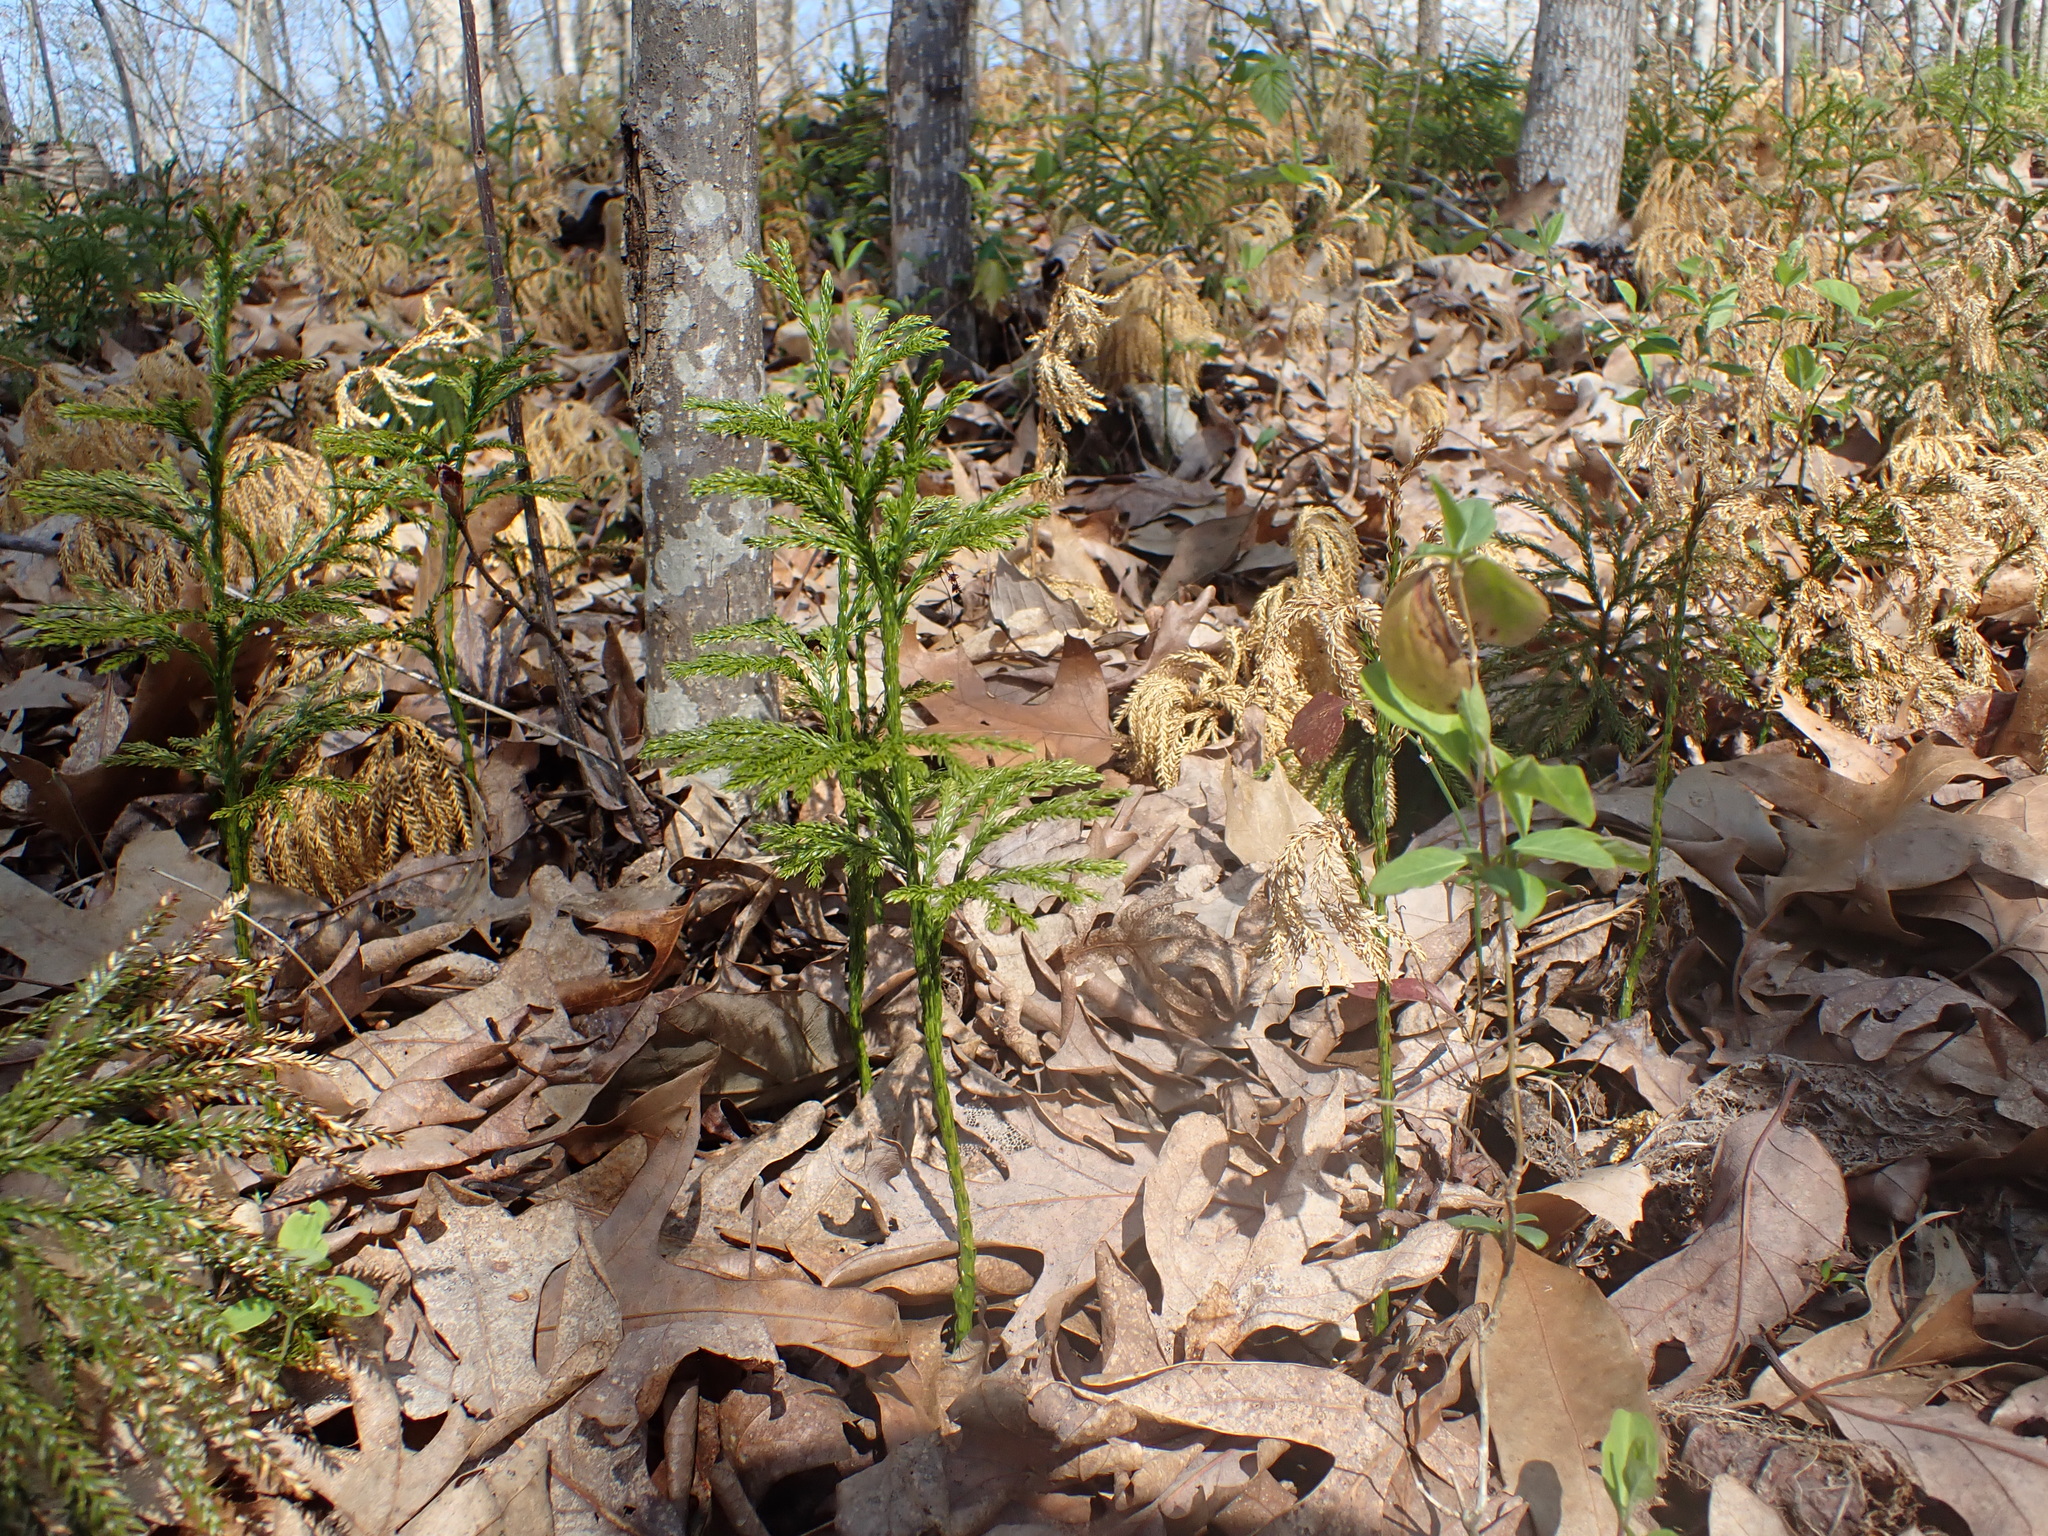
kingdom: Plantae
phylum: Tracheophyta
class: Lycopodiopsida
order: Lycopodiales
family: Lycopodiaceae
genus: Dendrolycopodium
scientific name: Dendrolycopodium obscurum
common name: Common ground-pine
